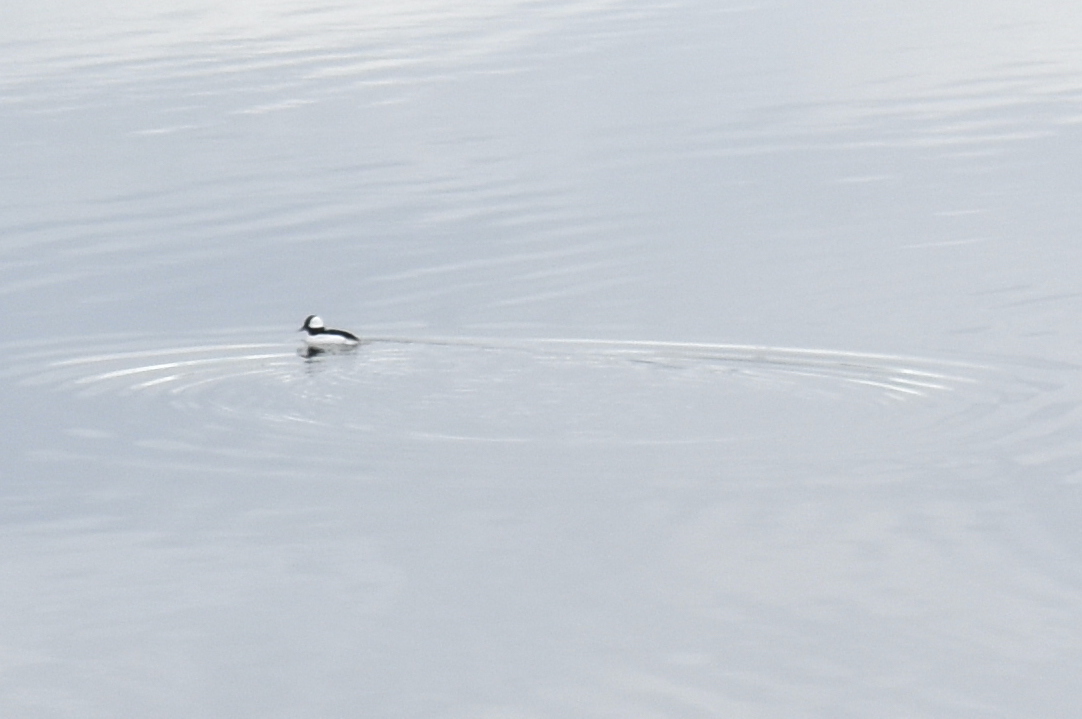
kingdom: Animalia
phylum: Chordata
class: Aves
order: Anseriformes
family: Anatidae
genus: Bucephala
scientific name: Bucephala albeola
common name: Bufflehead
